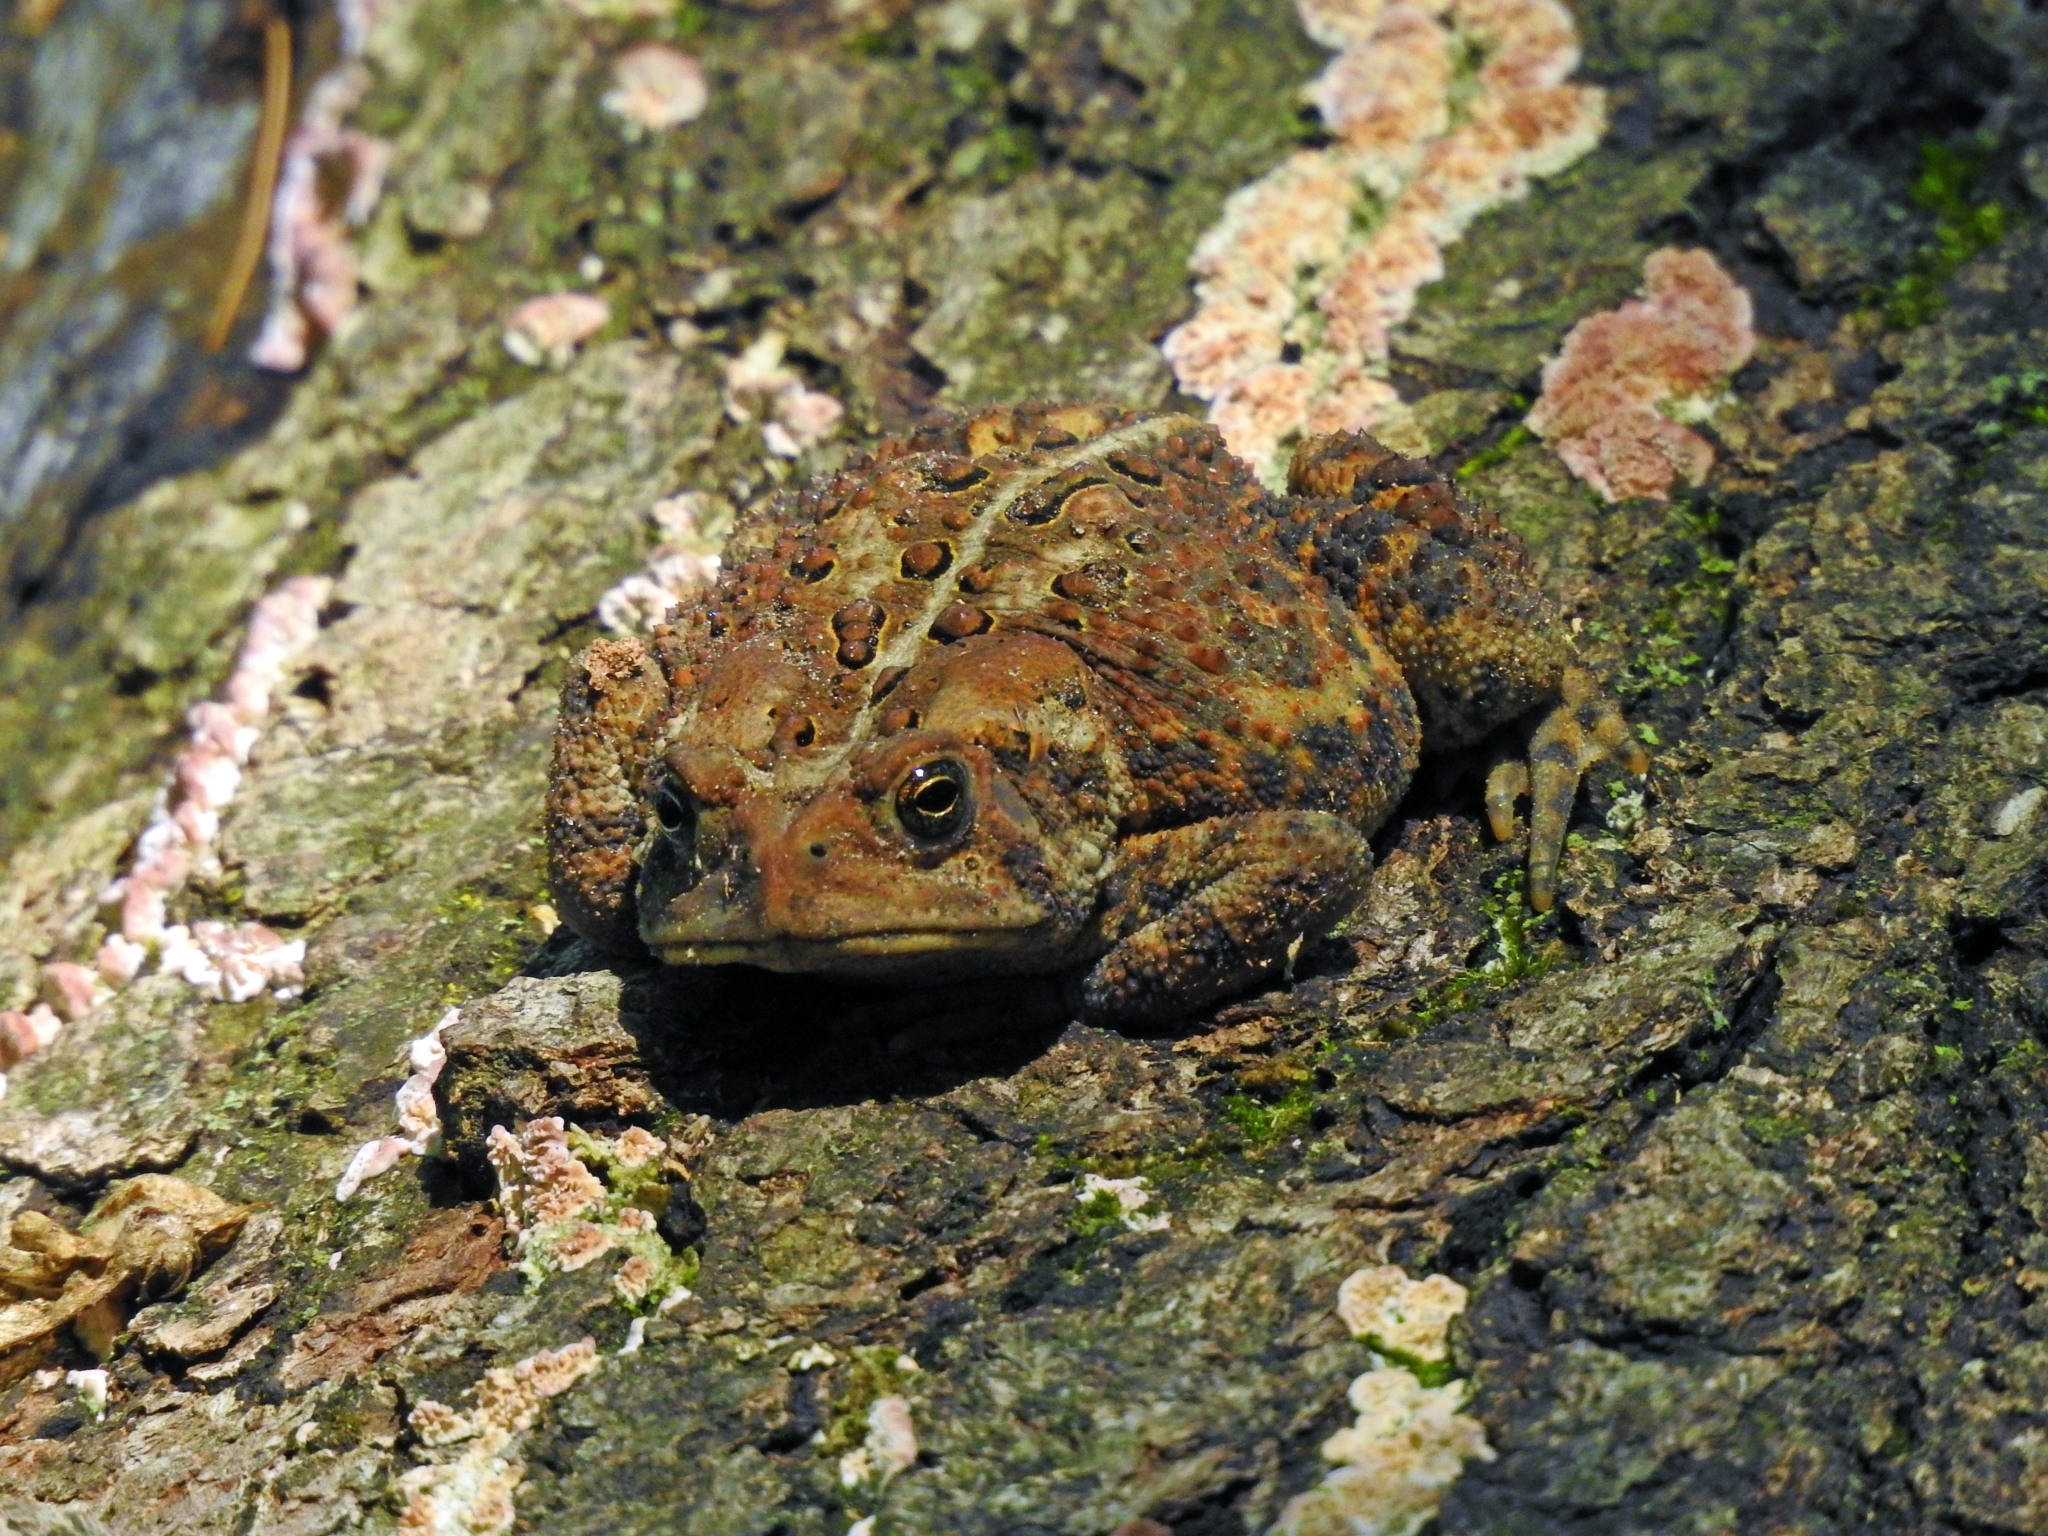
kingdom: Animalia
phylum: Chordata
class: Amphibia
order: Anura
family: Bufonidae
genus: Anaxyrus
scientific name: Anaxyrus americanus
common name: American toad
